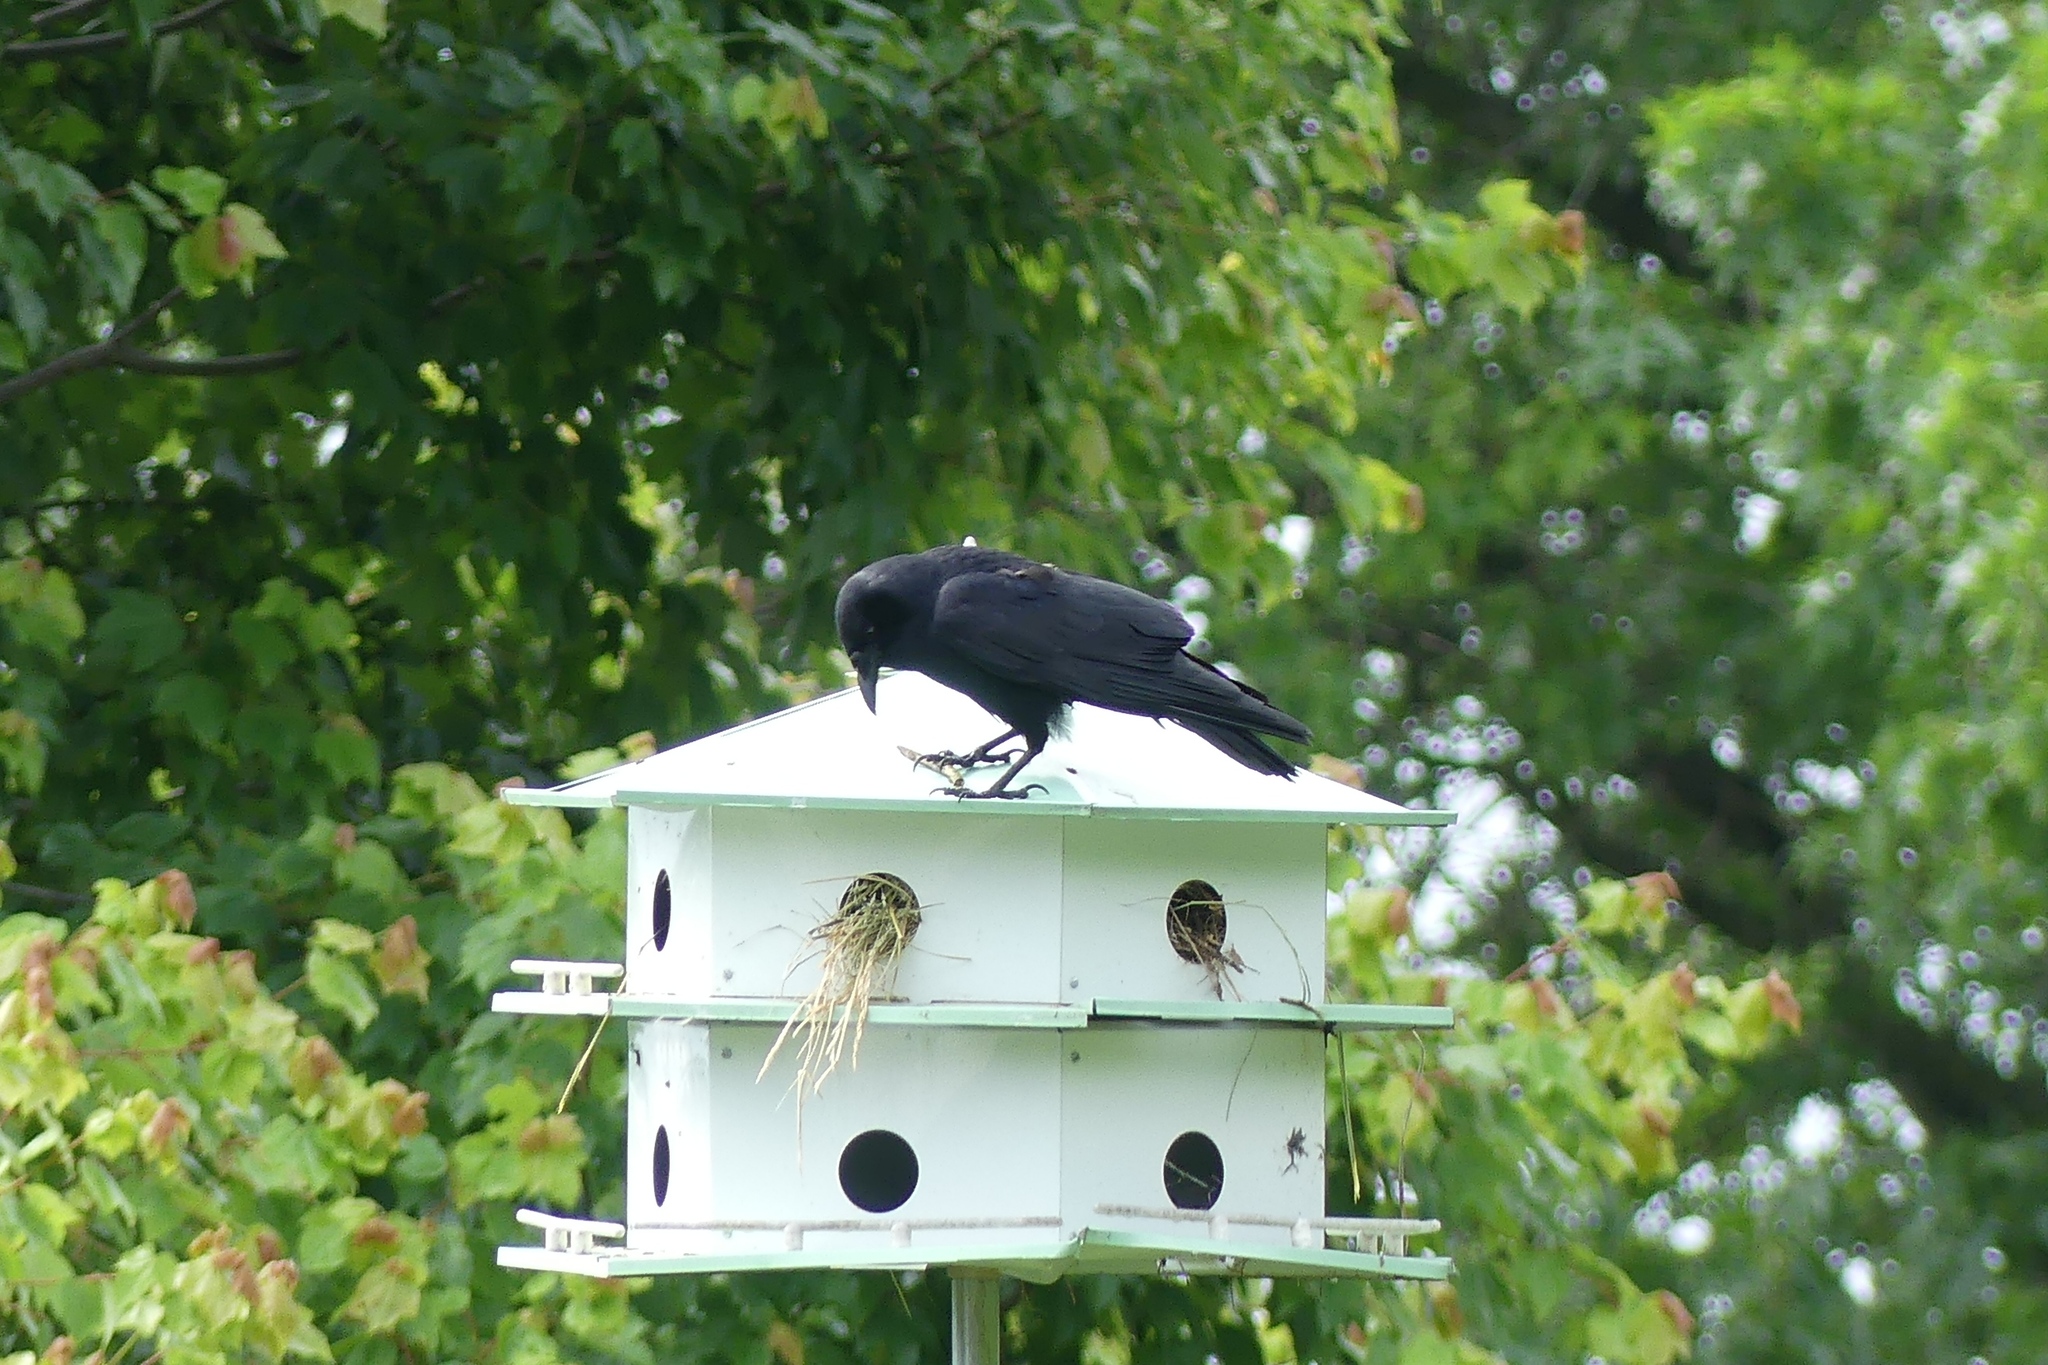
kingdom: Animalia
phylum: Chordata
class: Aves
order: Passeriformes
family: Corvidae
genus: Corvus
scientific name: Corvus ossifragus
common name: Fish crow
